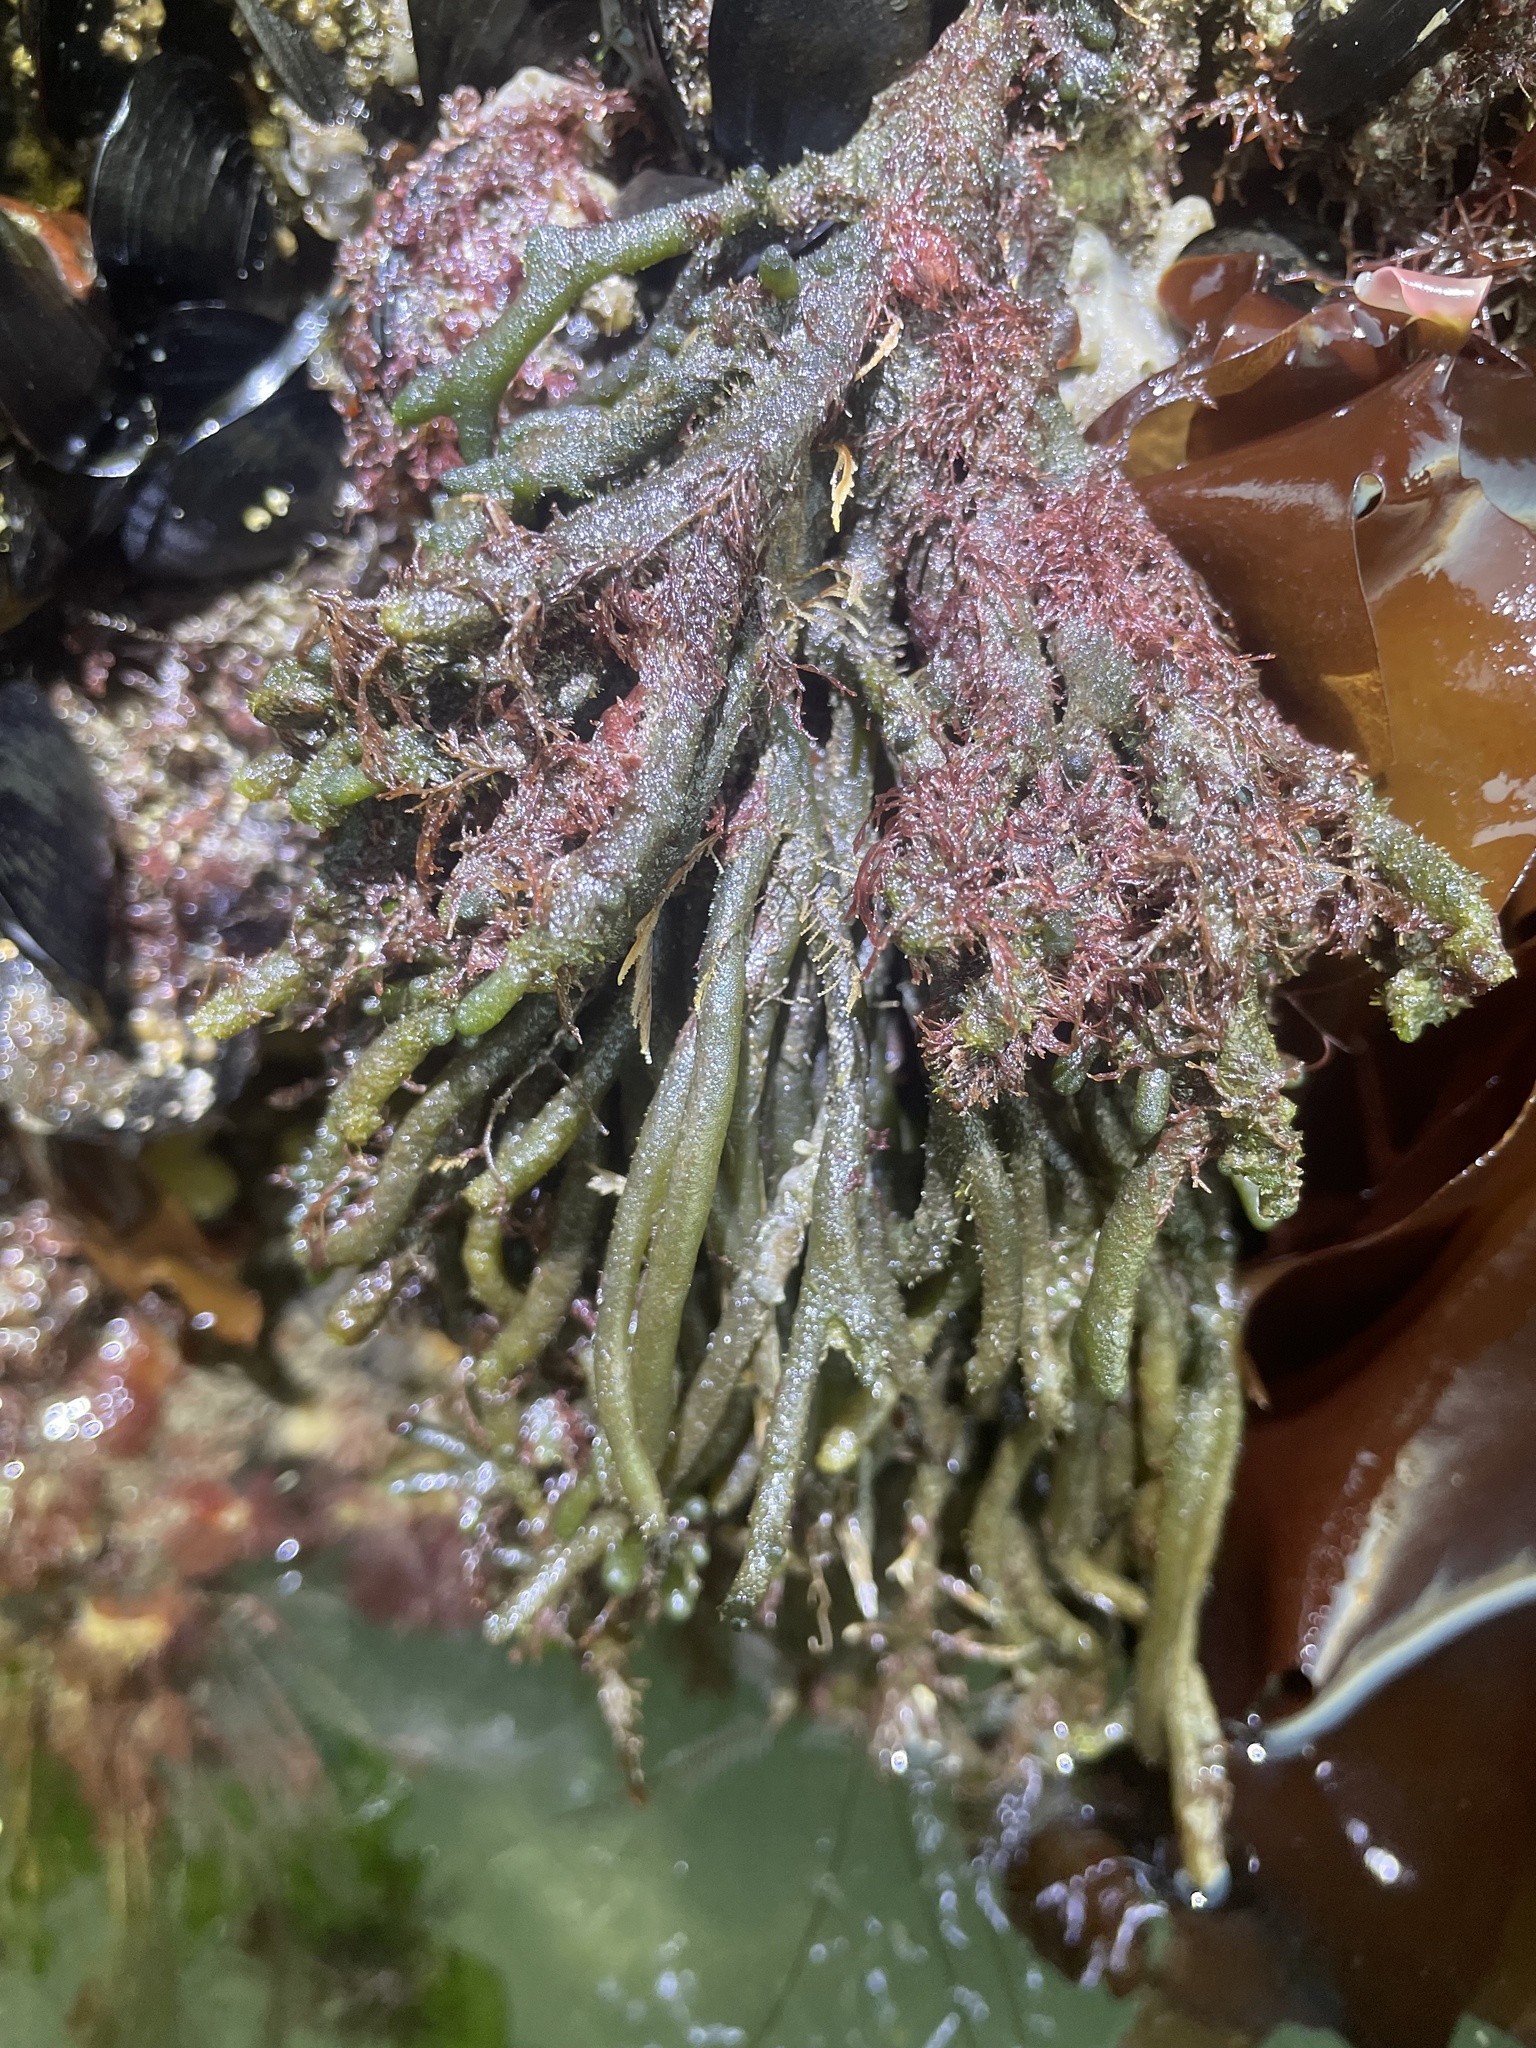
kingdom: Plantae
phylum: Chlorophyta
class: Ulvophyceae
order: Bryopsidales
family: Codiaceae
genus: Codium
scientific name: Codium fragile
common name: Dead man's fingers
